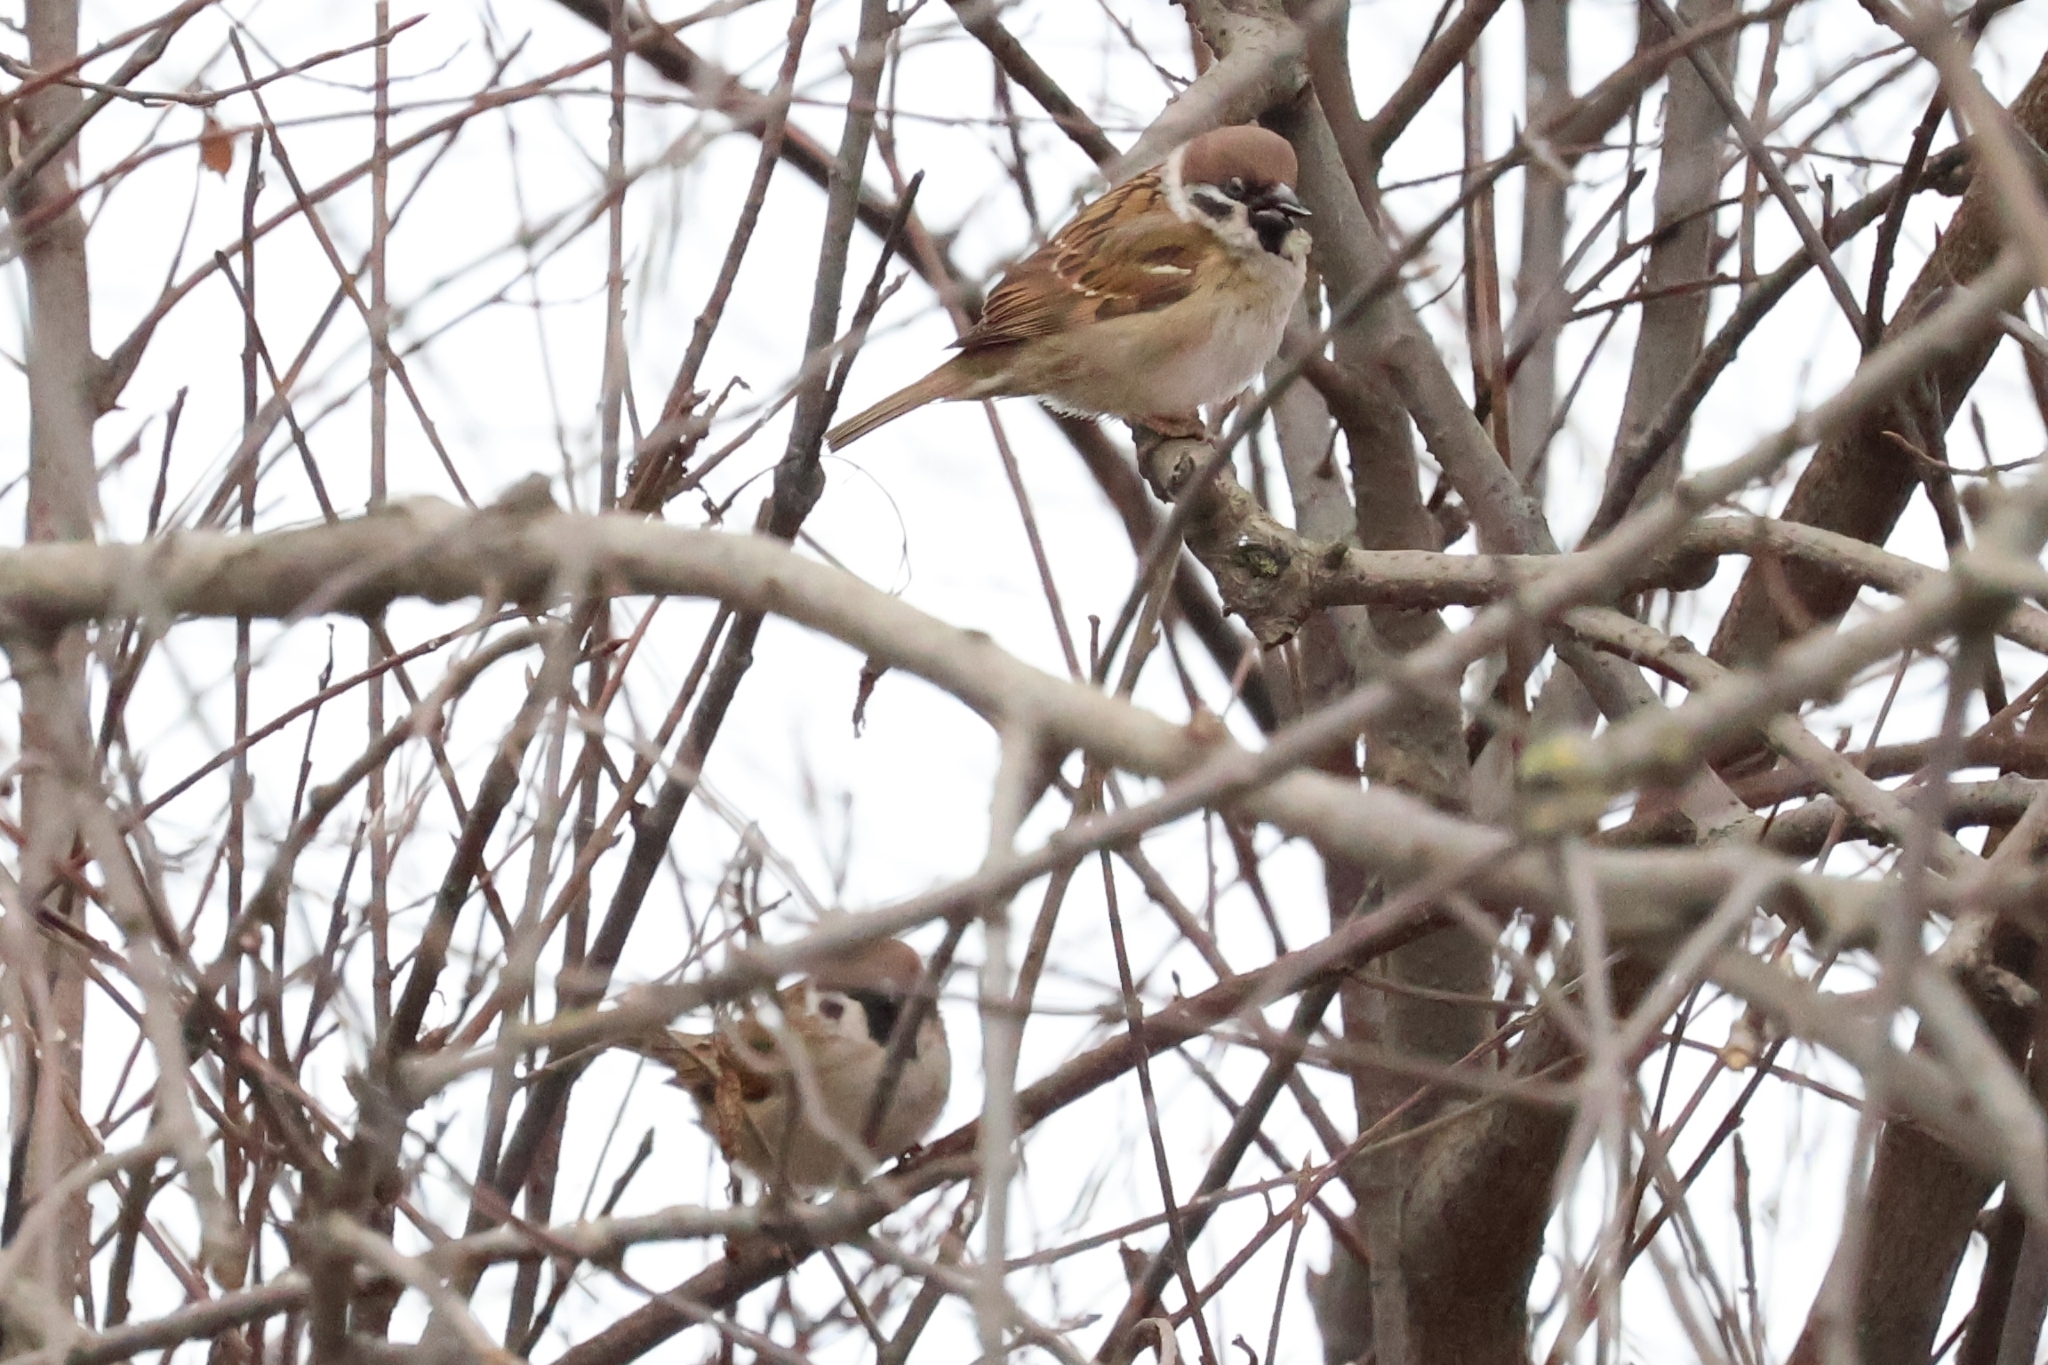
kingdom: Animalia
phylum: Chordata
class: Aves
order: Passeriformes
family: Passeridae
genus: Passer
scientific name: Passer montanus
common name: Eurasian tree sparrow
